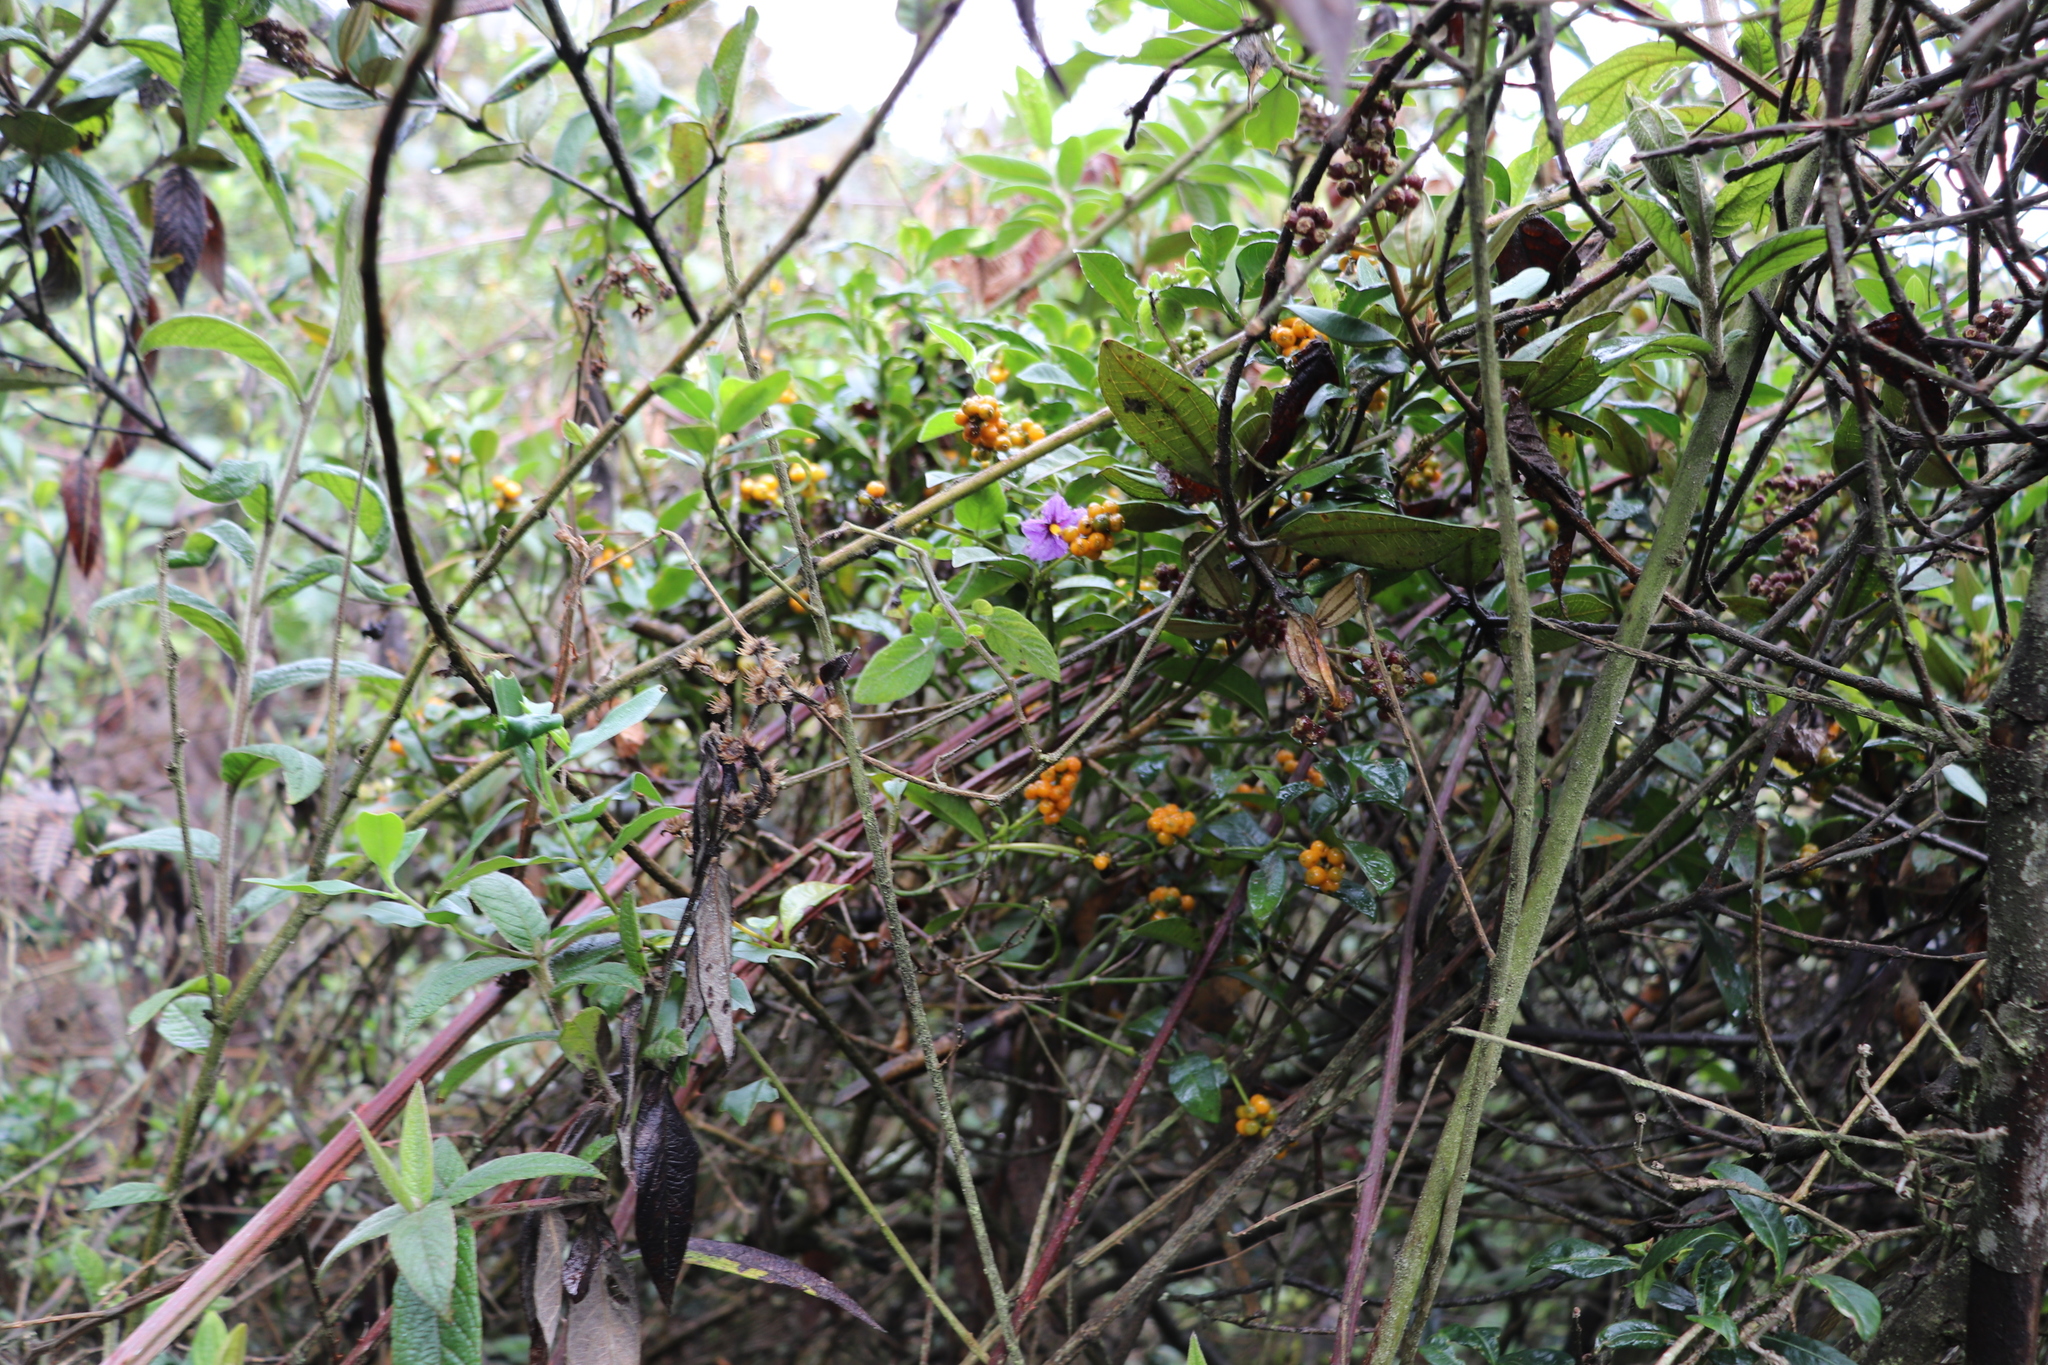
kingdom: Plantae
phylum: Tracheophyta
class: Magnoliopsida
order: Gentianales
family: Rubiaceae
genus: Palicourea
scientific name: Palicourea boqueronensis
